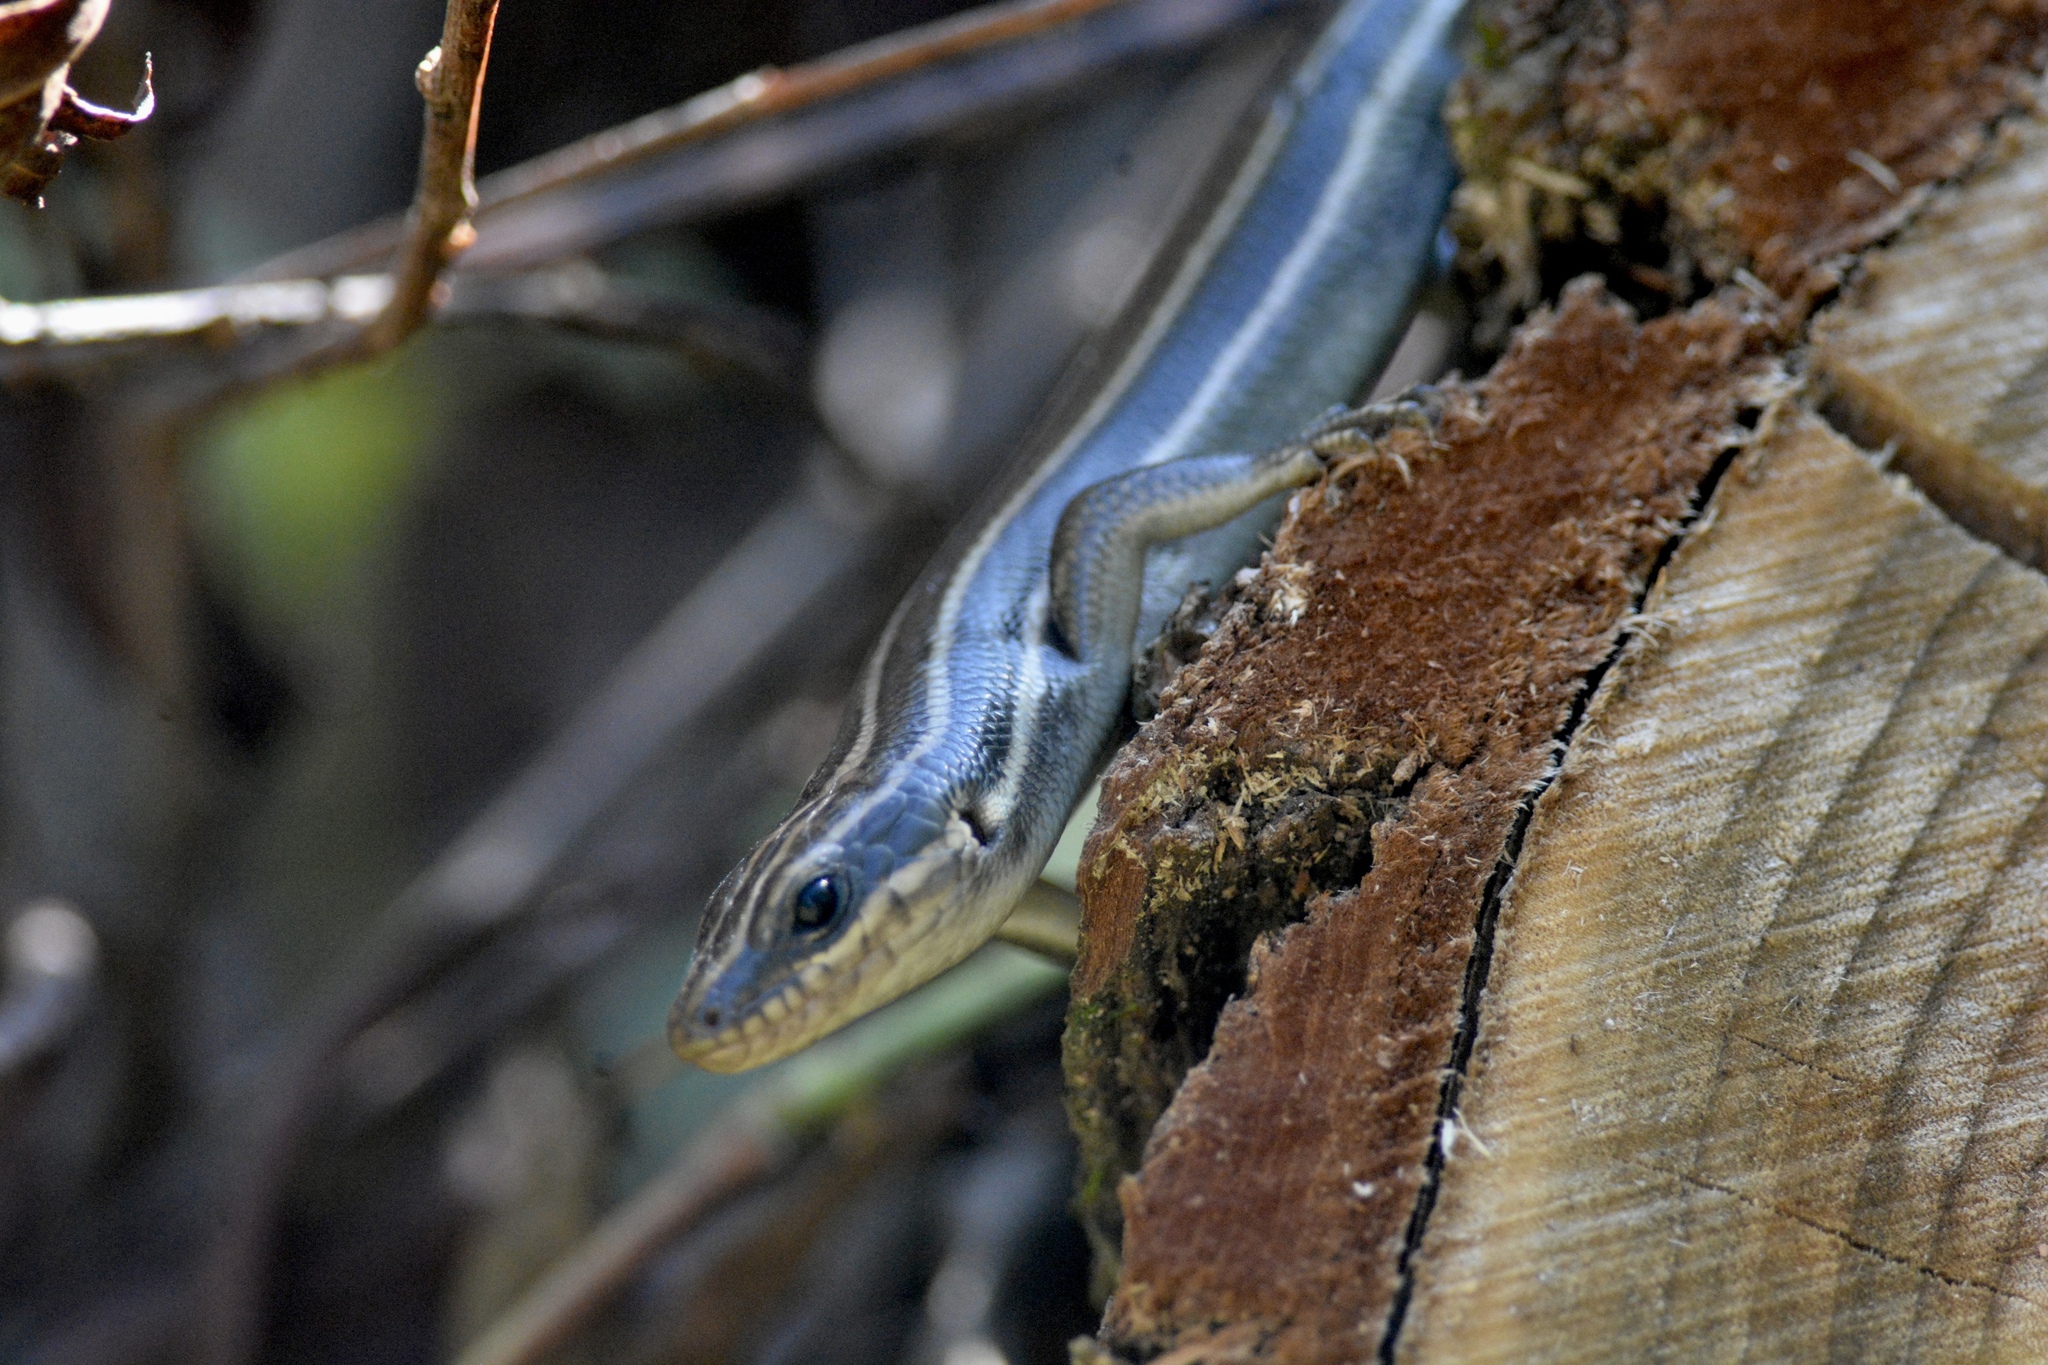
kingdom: Animalia
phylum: Chordata
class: Squamata
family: Scincidae
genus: Plestiodon
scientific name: Plestiodon fasciatus
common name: Five-lined skink
